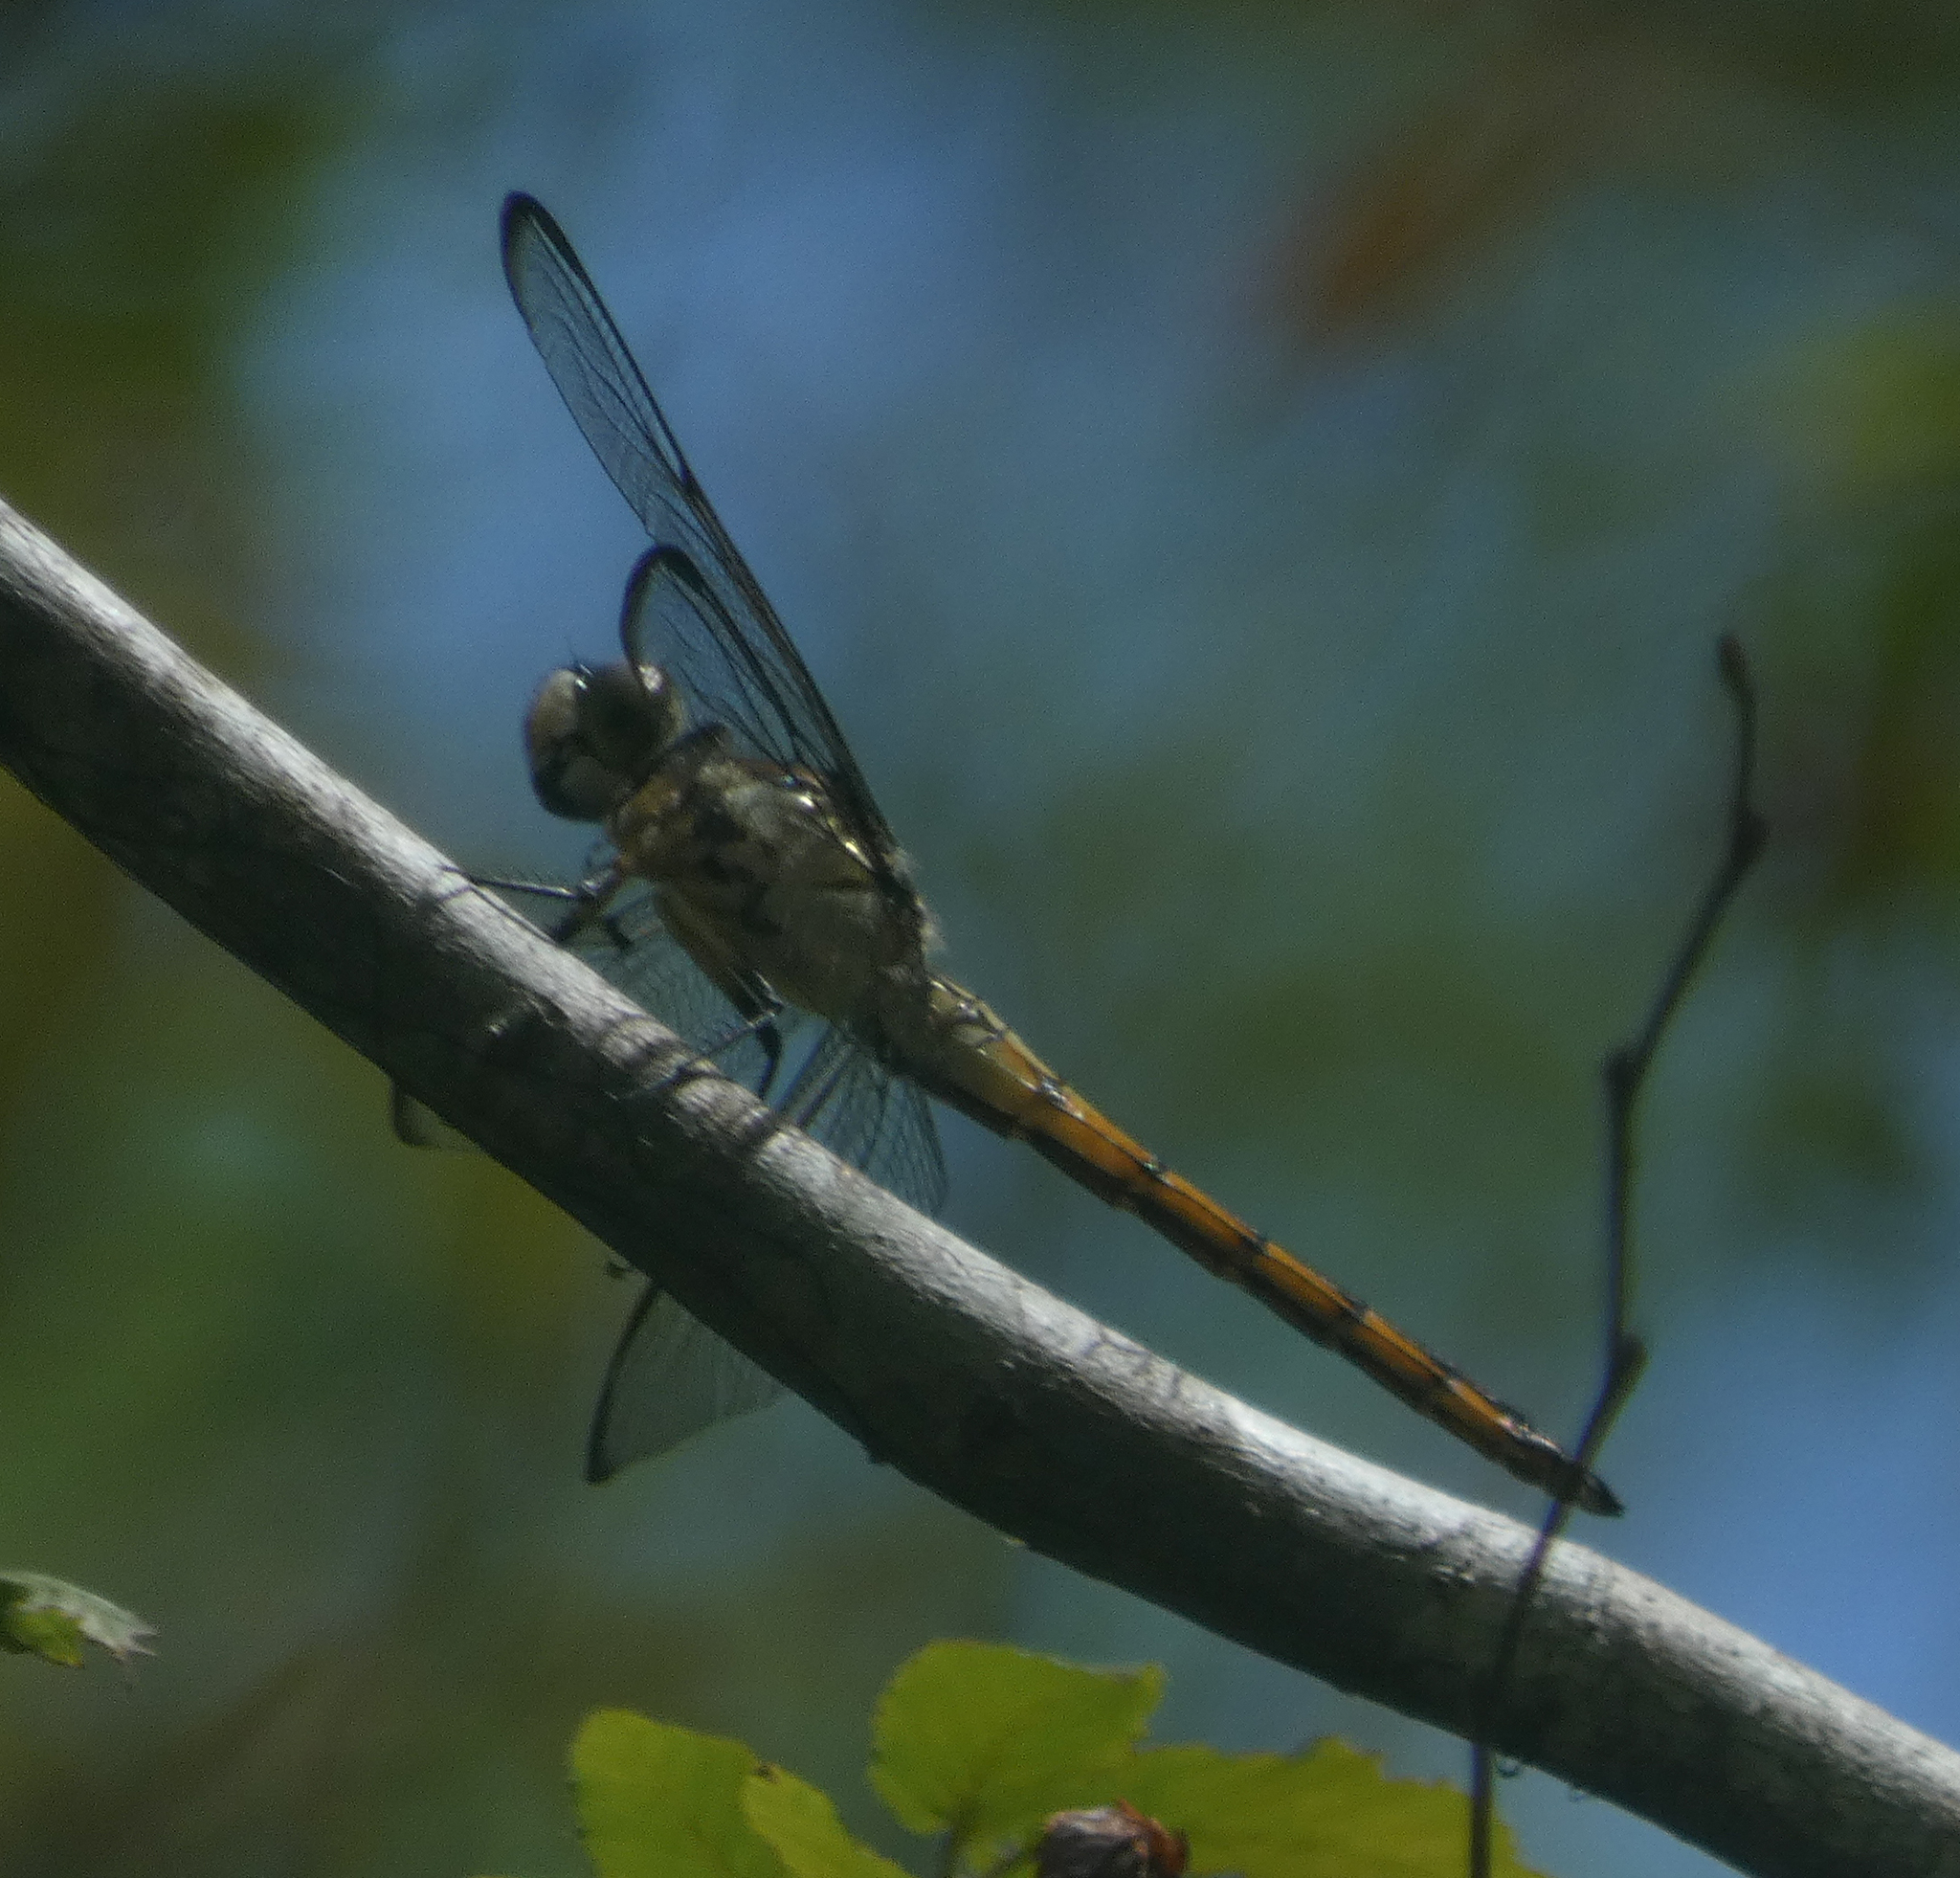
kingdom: Animalia
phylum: Arthropoda
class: Insecta
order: Odonata
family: Libellulidae
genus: Libellula
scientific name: Libellula vibrans
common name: Great blue skimmer
